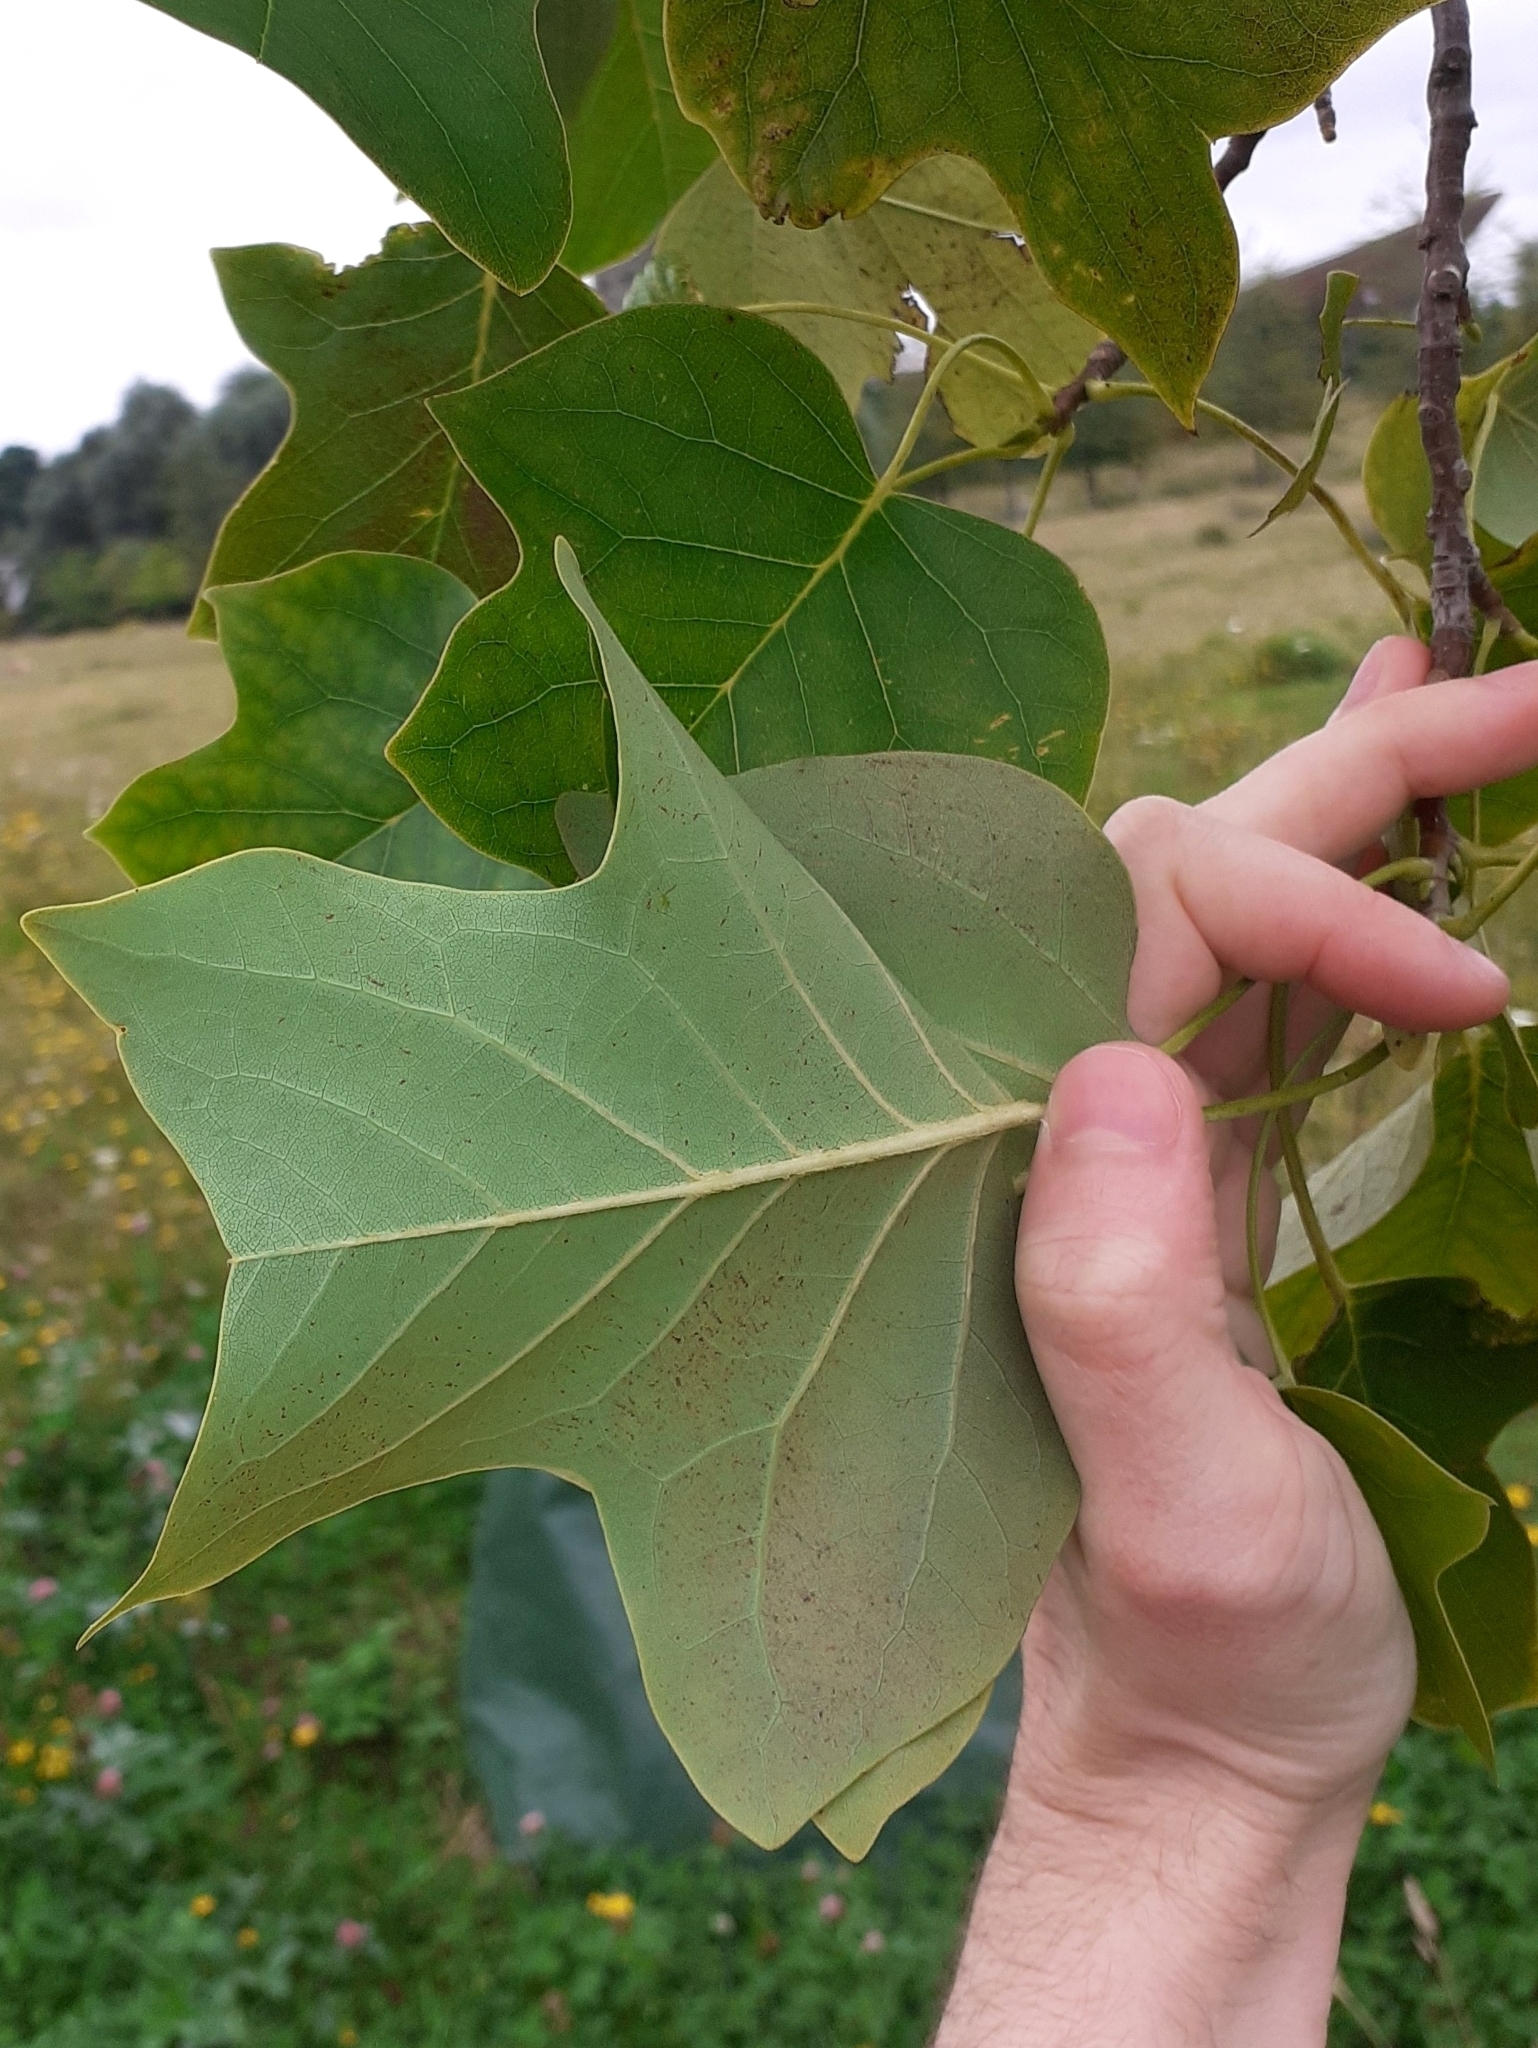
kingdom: Plantae
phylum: Tracheophyta
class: Magnoliopsida
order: Magnoliales
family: Magnoliaceae
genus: Liriodendron
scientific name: Liriodendron tulipifera
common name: Tulip tree
